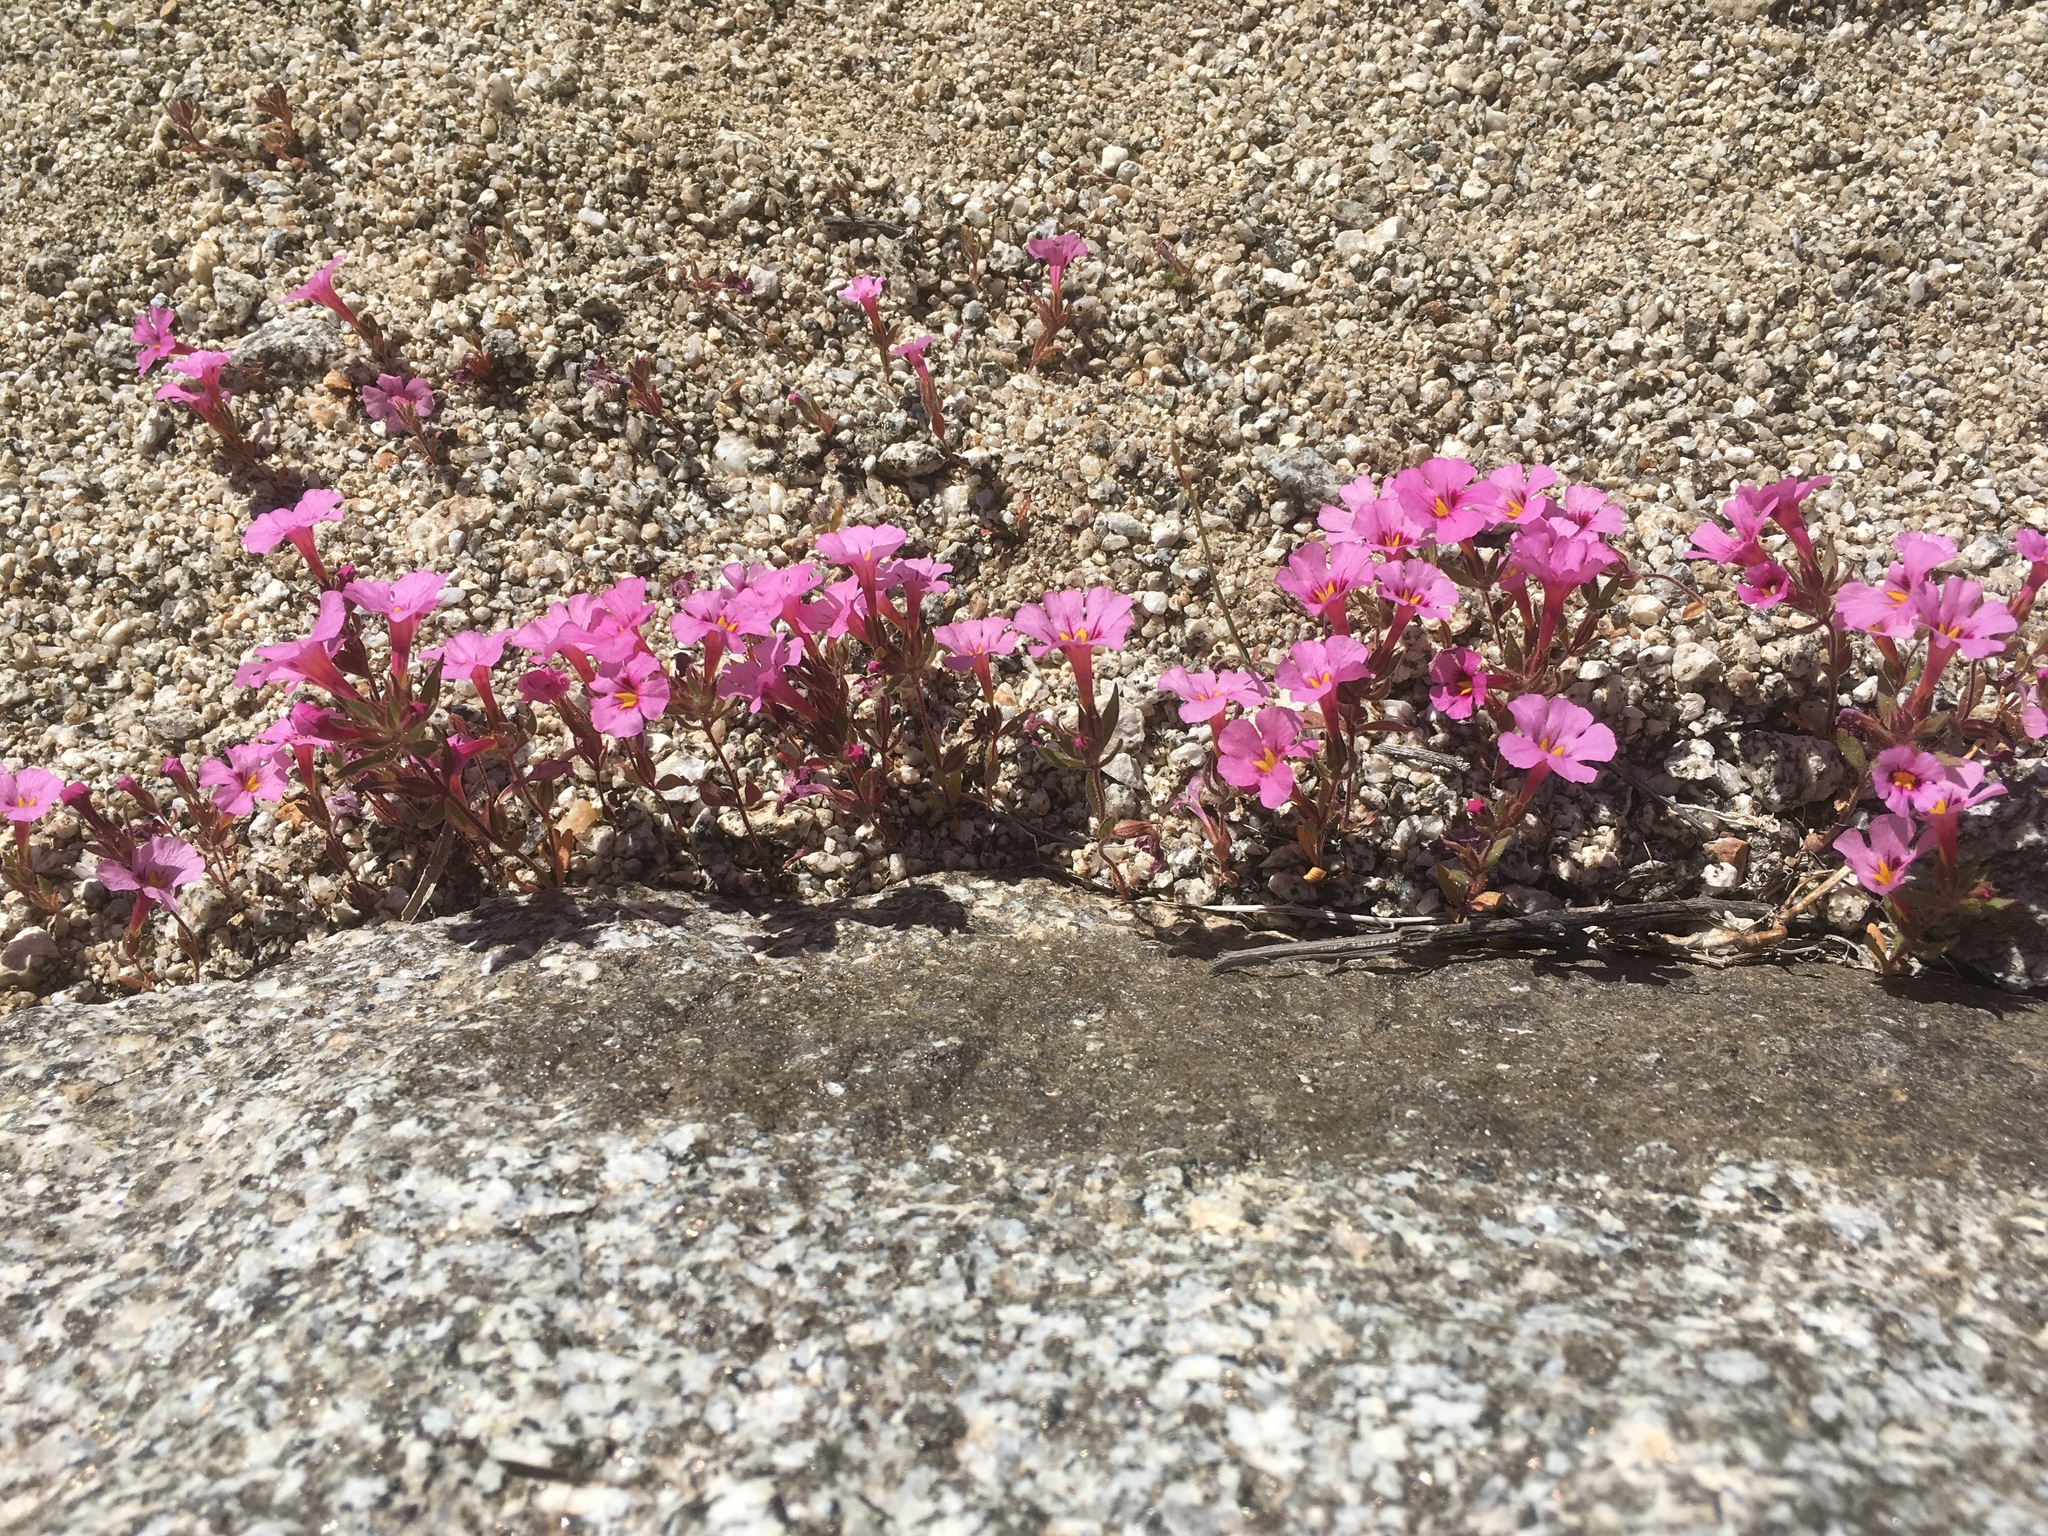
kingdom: Plantae
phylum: Tracheophyta
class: Magnoliopsida
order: Lamiales
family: Phrymaceae
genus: Diplacus
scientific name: Diplacus bigelovii
